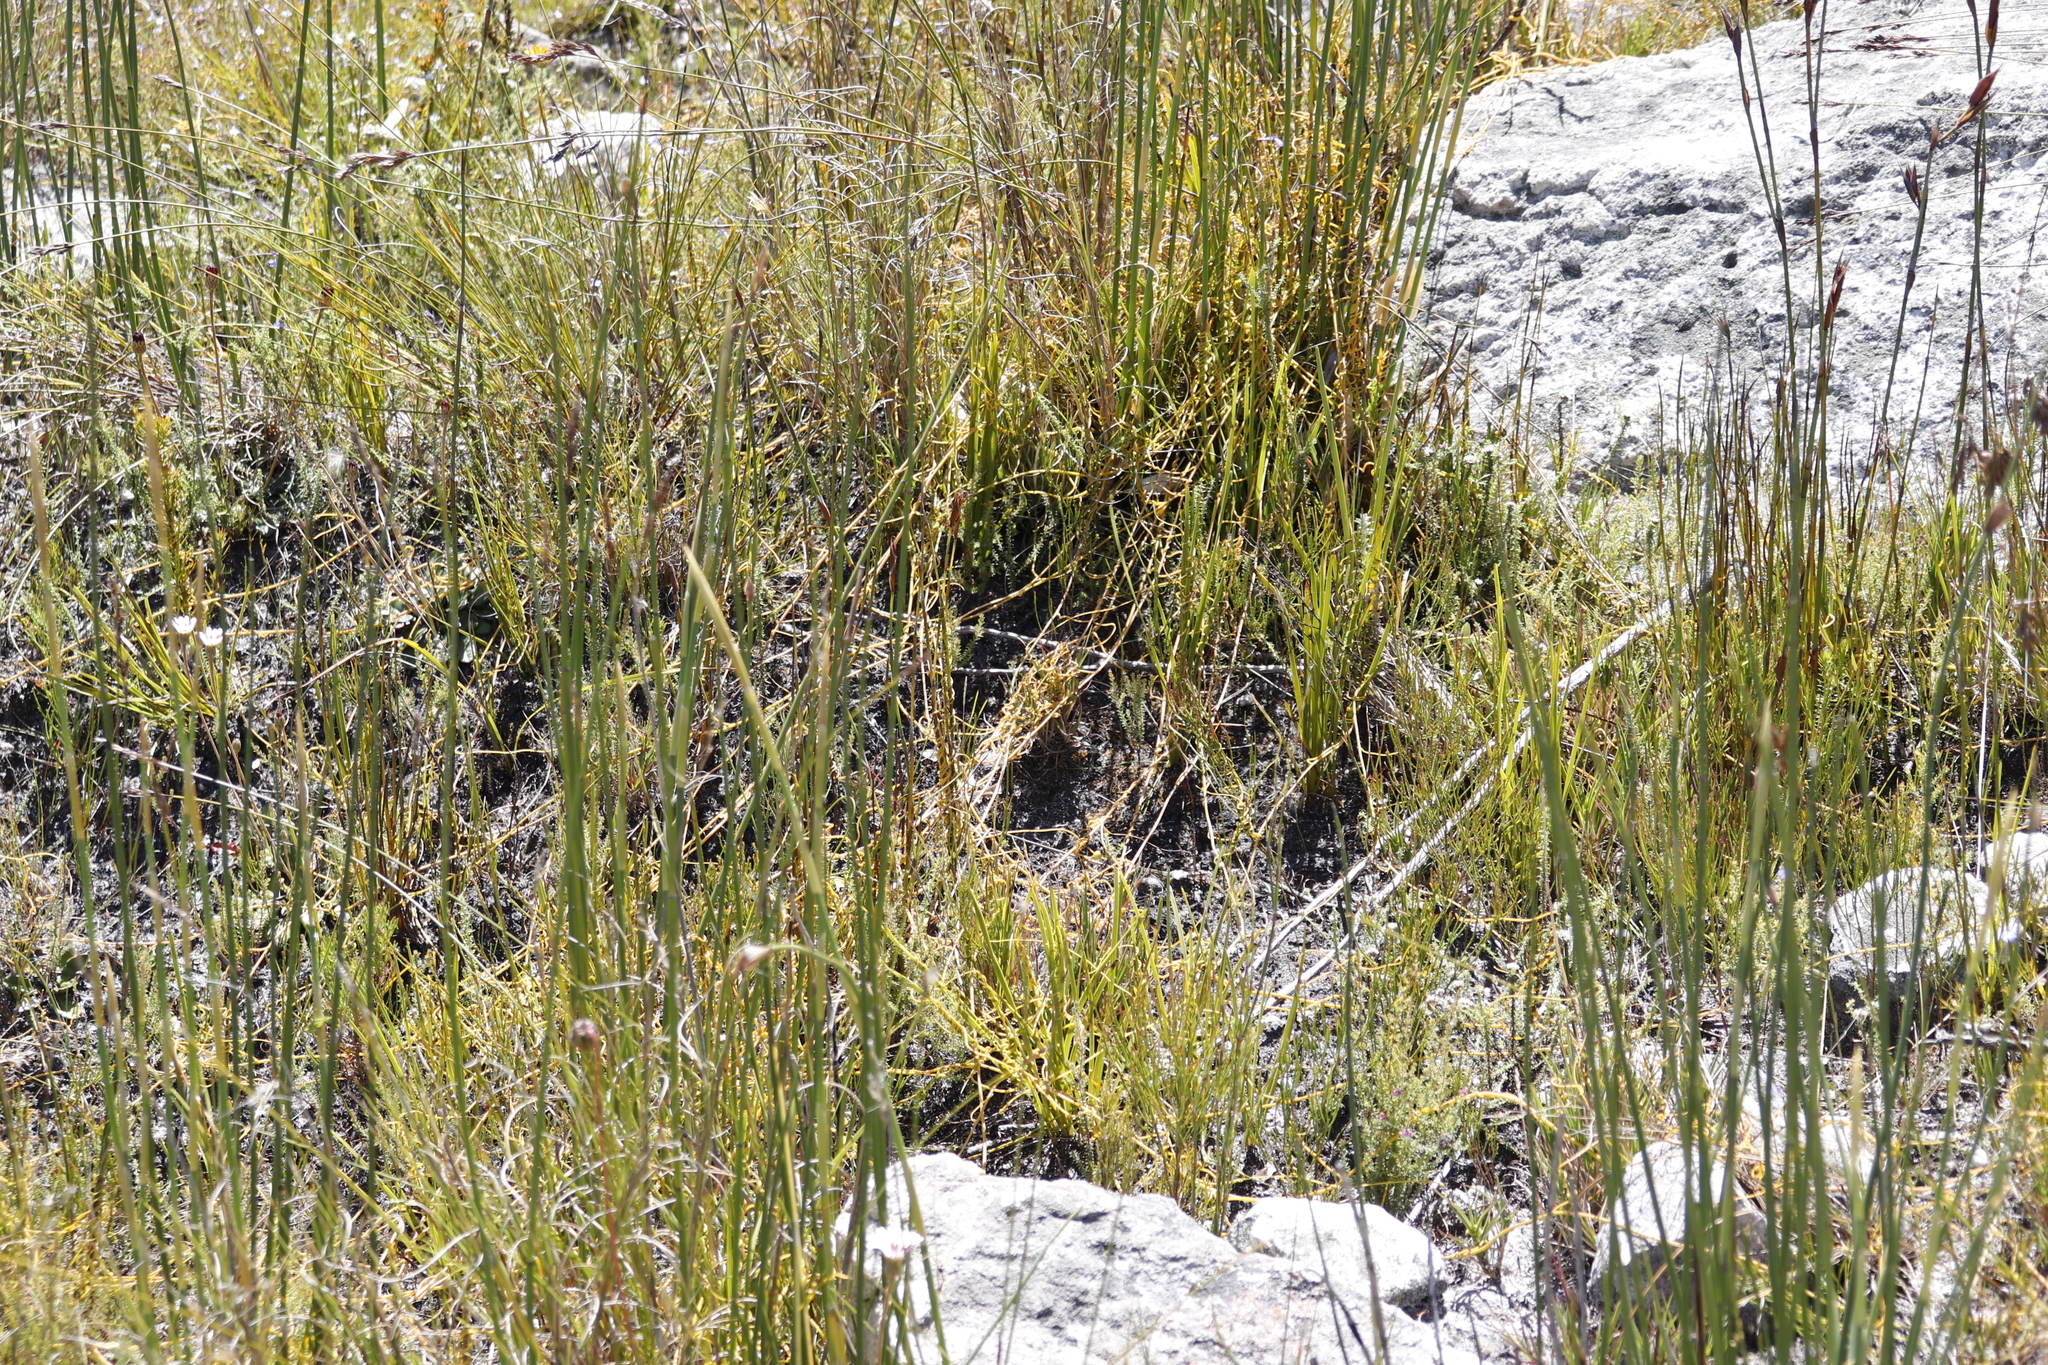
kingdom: Plantae
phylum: Tracheophyta
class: Magnoliopsida
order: Laurales
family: Lauraceae
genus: Cassytha
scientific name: Cassytha ciliolata
